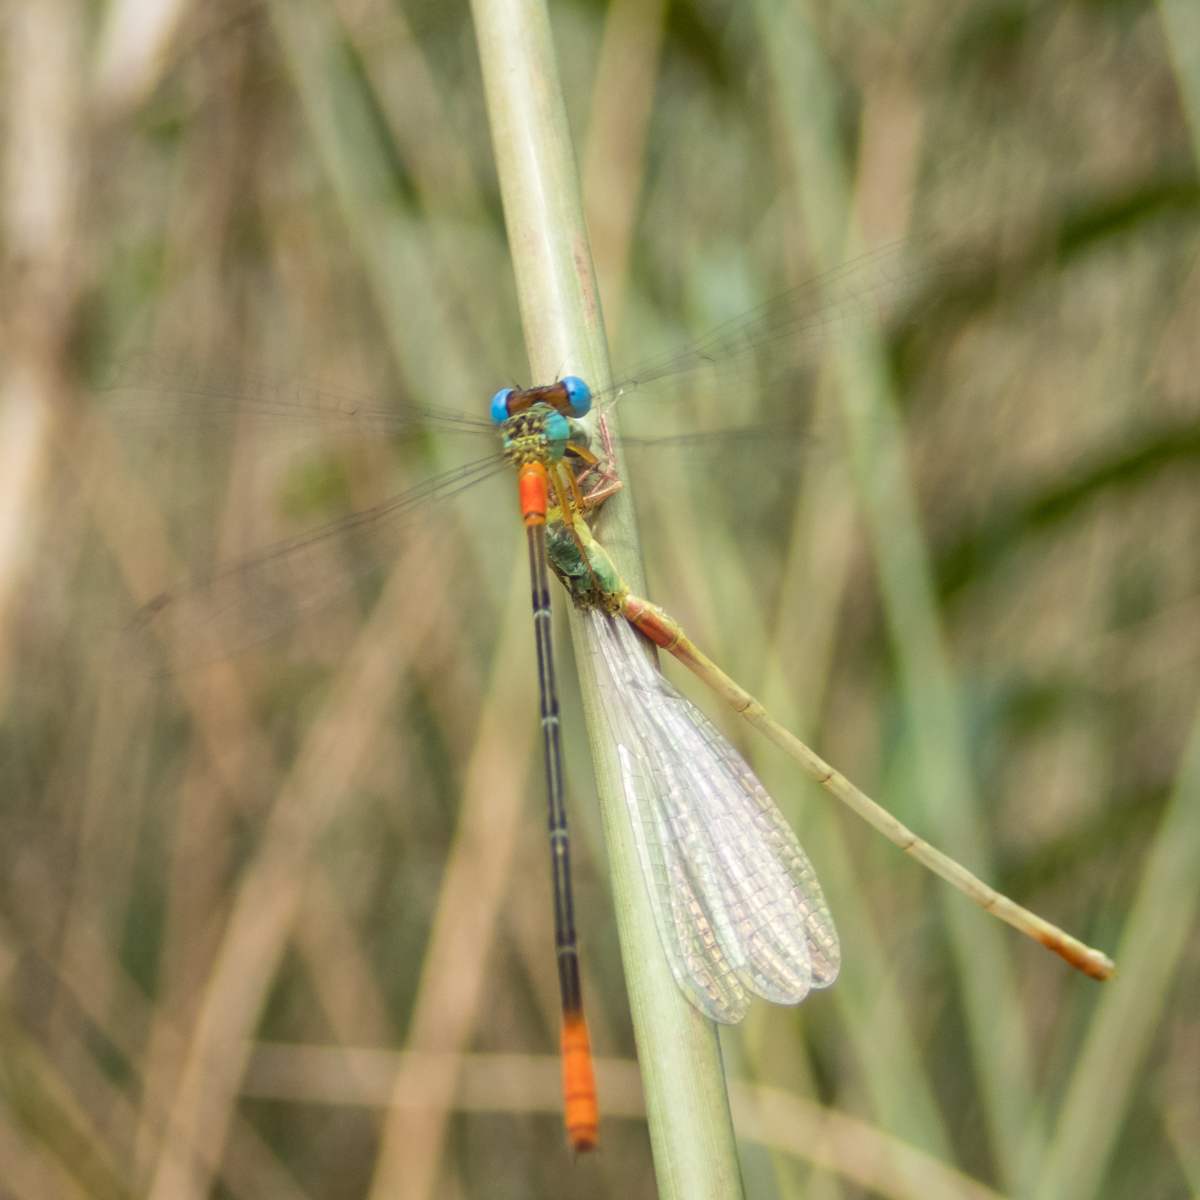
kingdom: Animalia
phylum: Arthropoda
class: Insecta
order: Odonata
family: Coenagrionidae
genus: Ceriagrion
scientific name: Ceriagrion cerinorubellum
